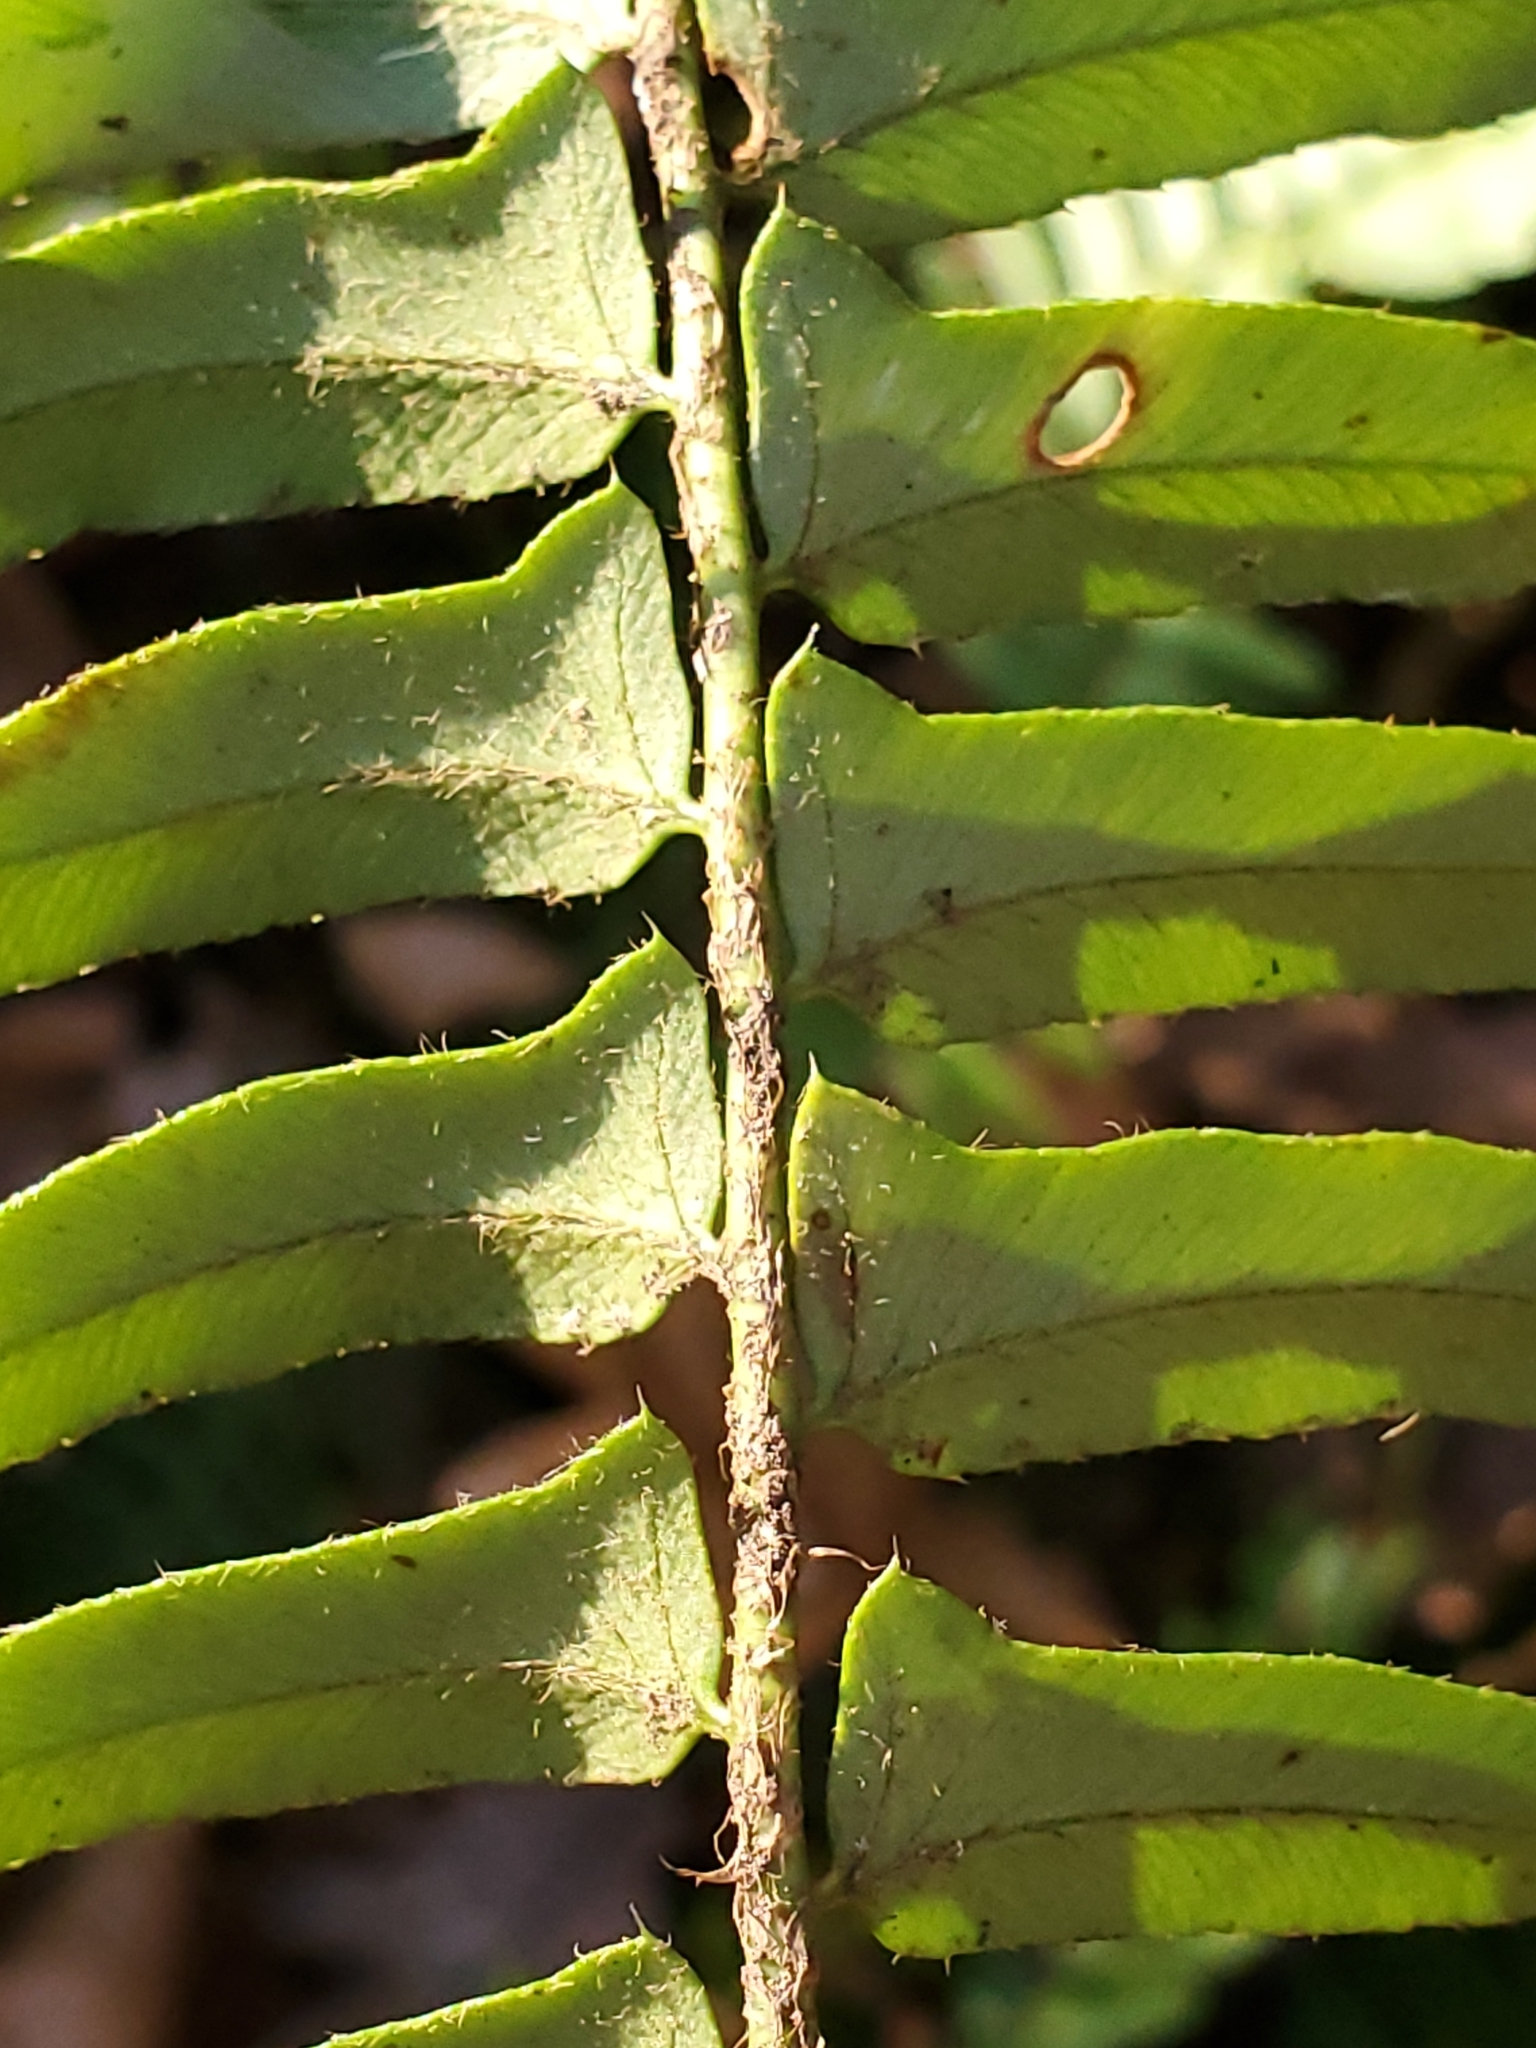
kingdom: Plantae
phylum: Tracheophyta
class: Polypodiopsida
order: Polypodiales
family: Dryopteridaceae
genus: Polystichum
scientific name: Polystichum acrostichoides
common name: Christmas fern
